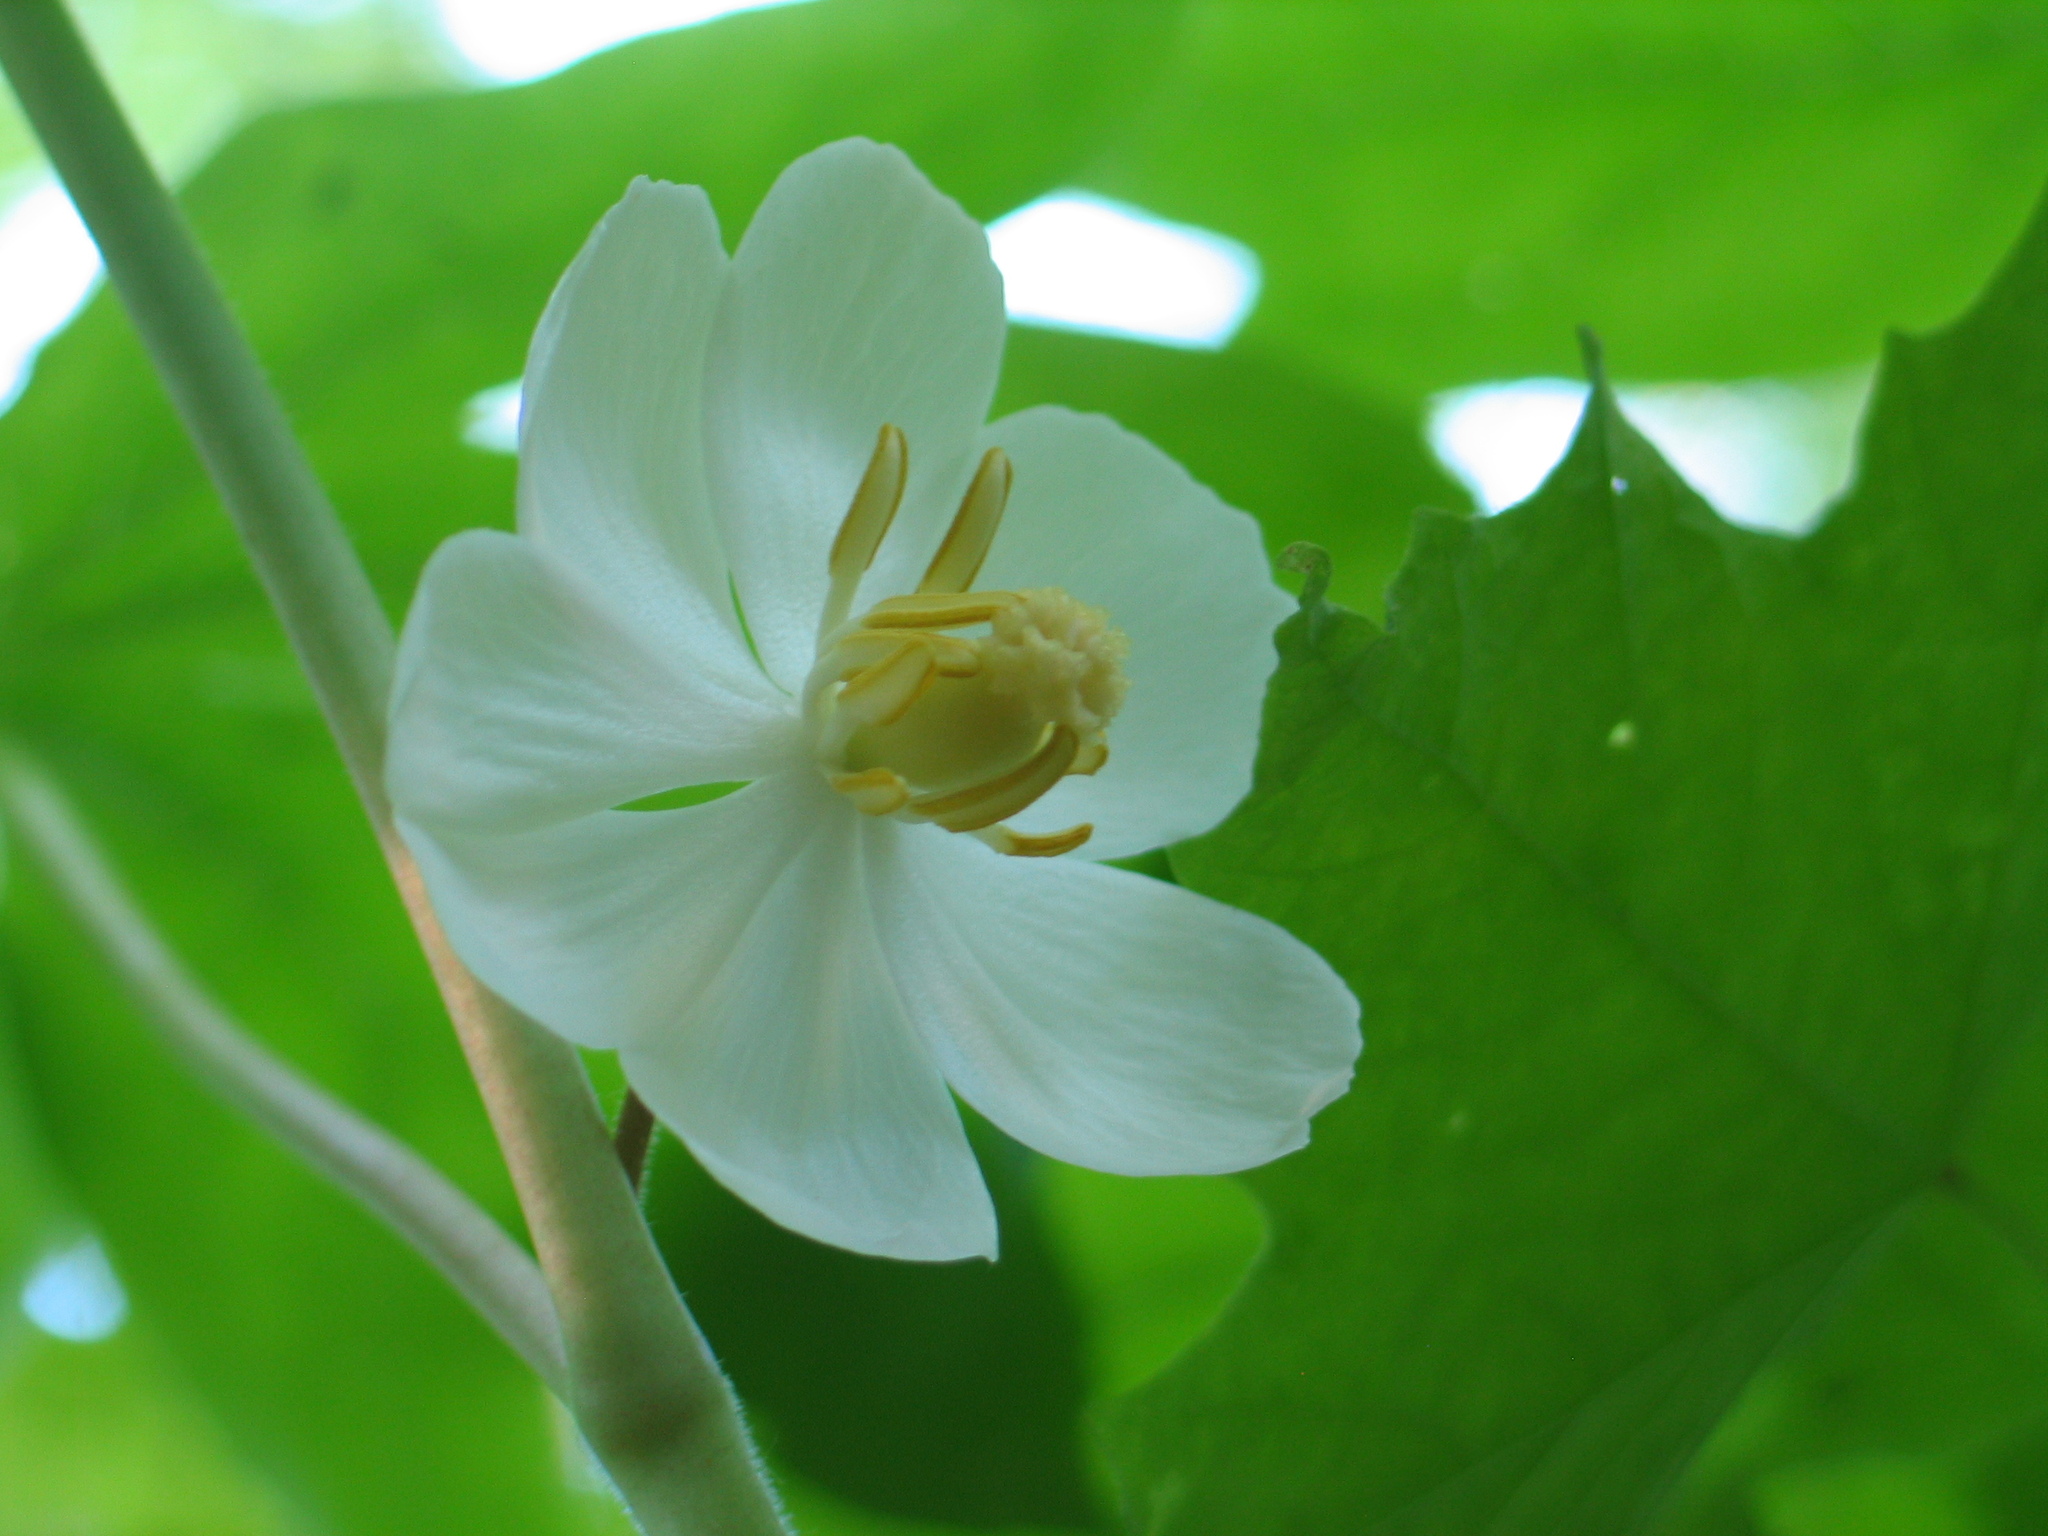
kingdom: Plantae
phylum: Tracheophyta
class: Magnoliopsida
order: Ranunculales
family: Berberidaceae
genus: Podophyllum
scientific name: Podophyllum peltatum
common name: Wild mandrake
